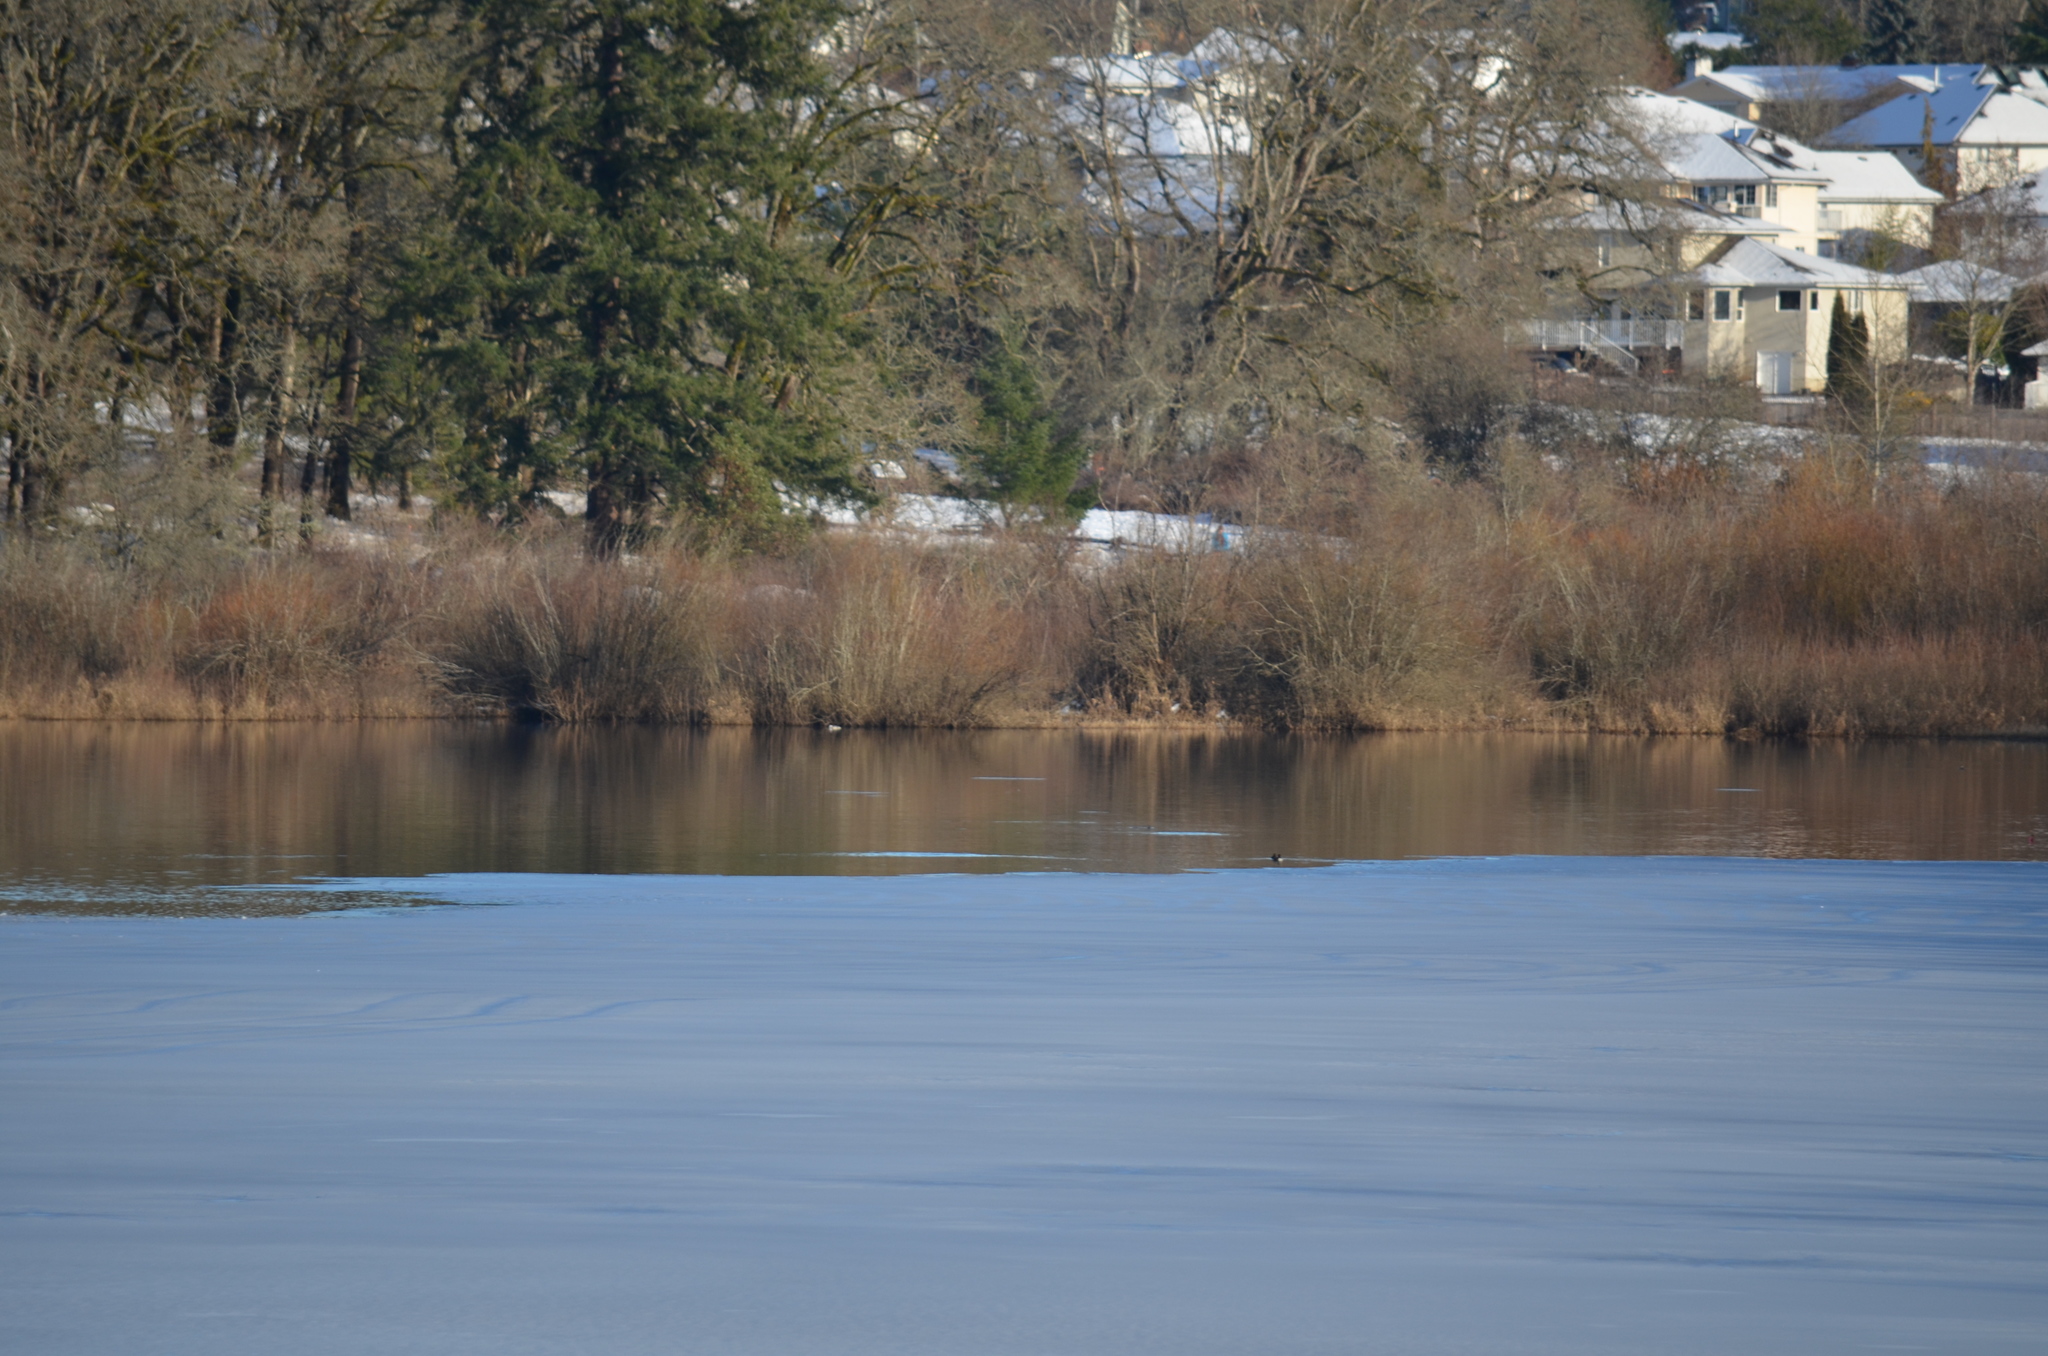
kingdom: Animalia
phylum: Chordata
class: Aves
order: Gruiformes
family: Rallidae
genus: Fulica
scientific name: Fulica americana
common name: American coot
